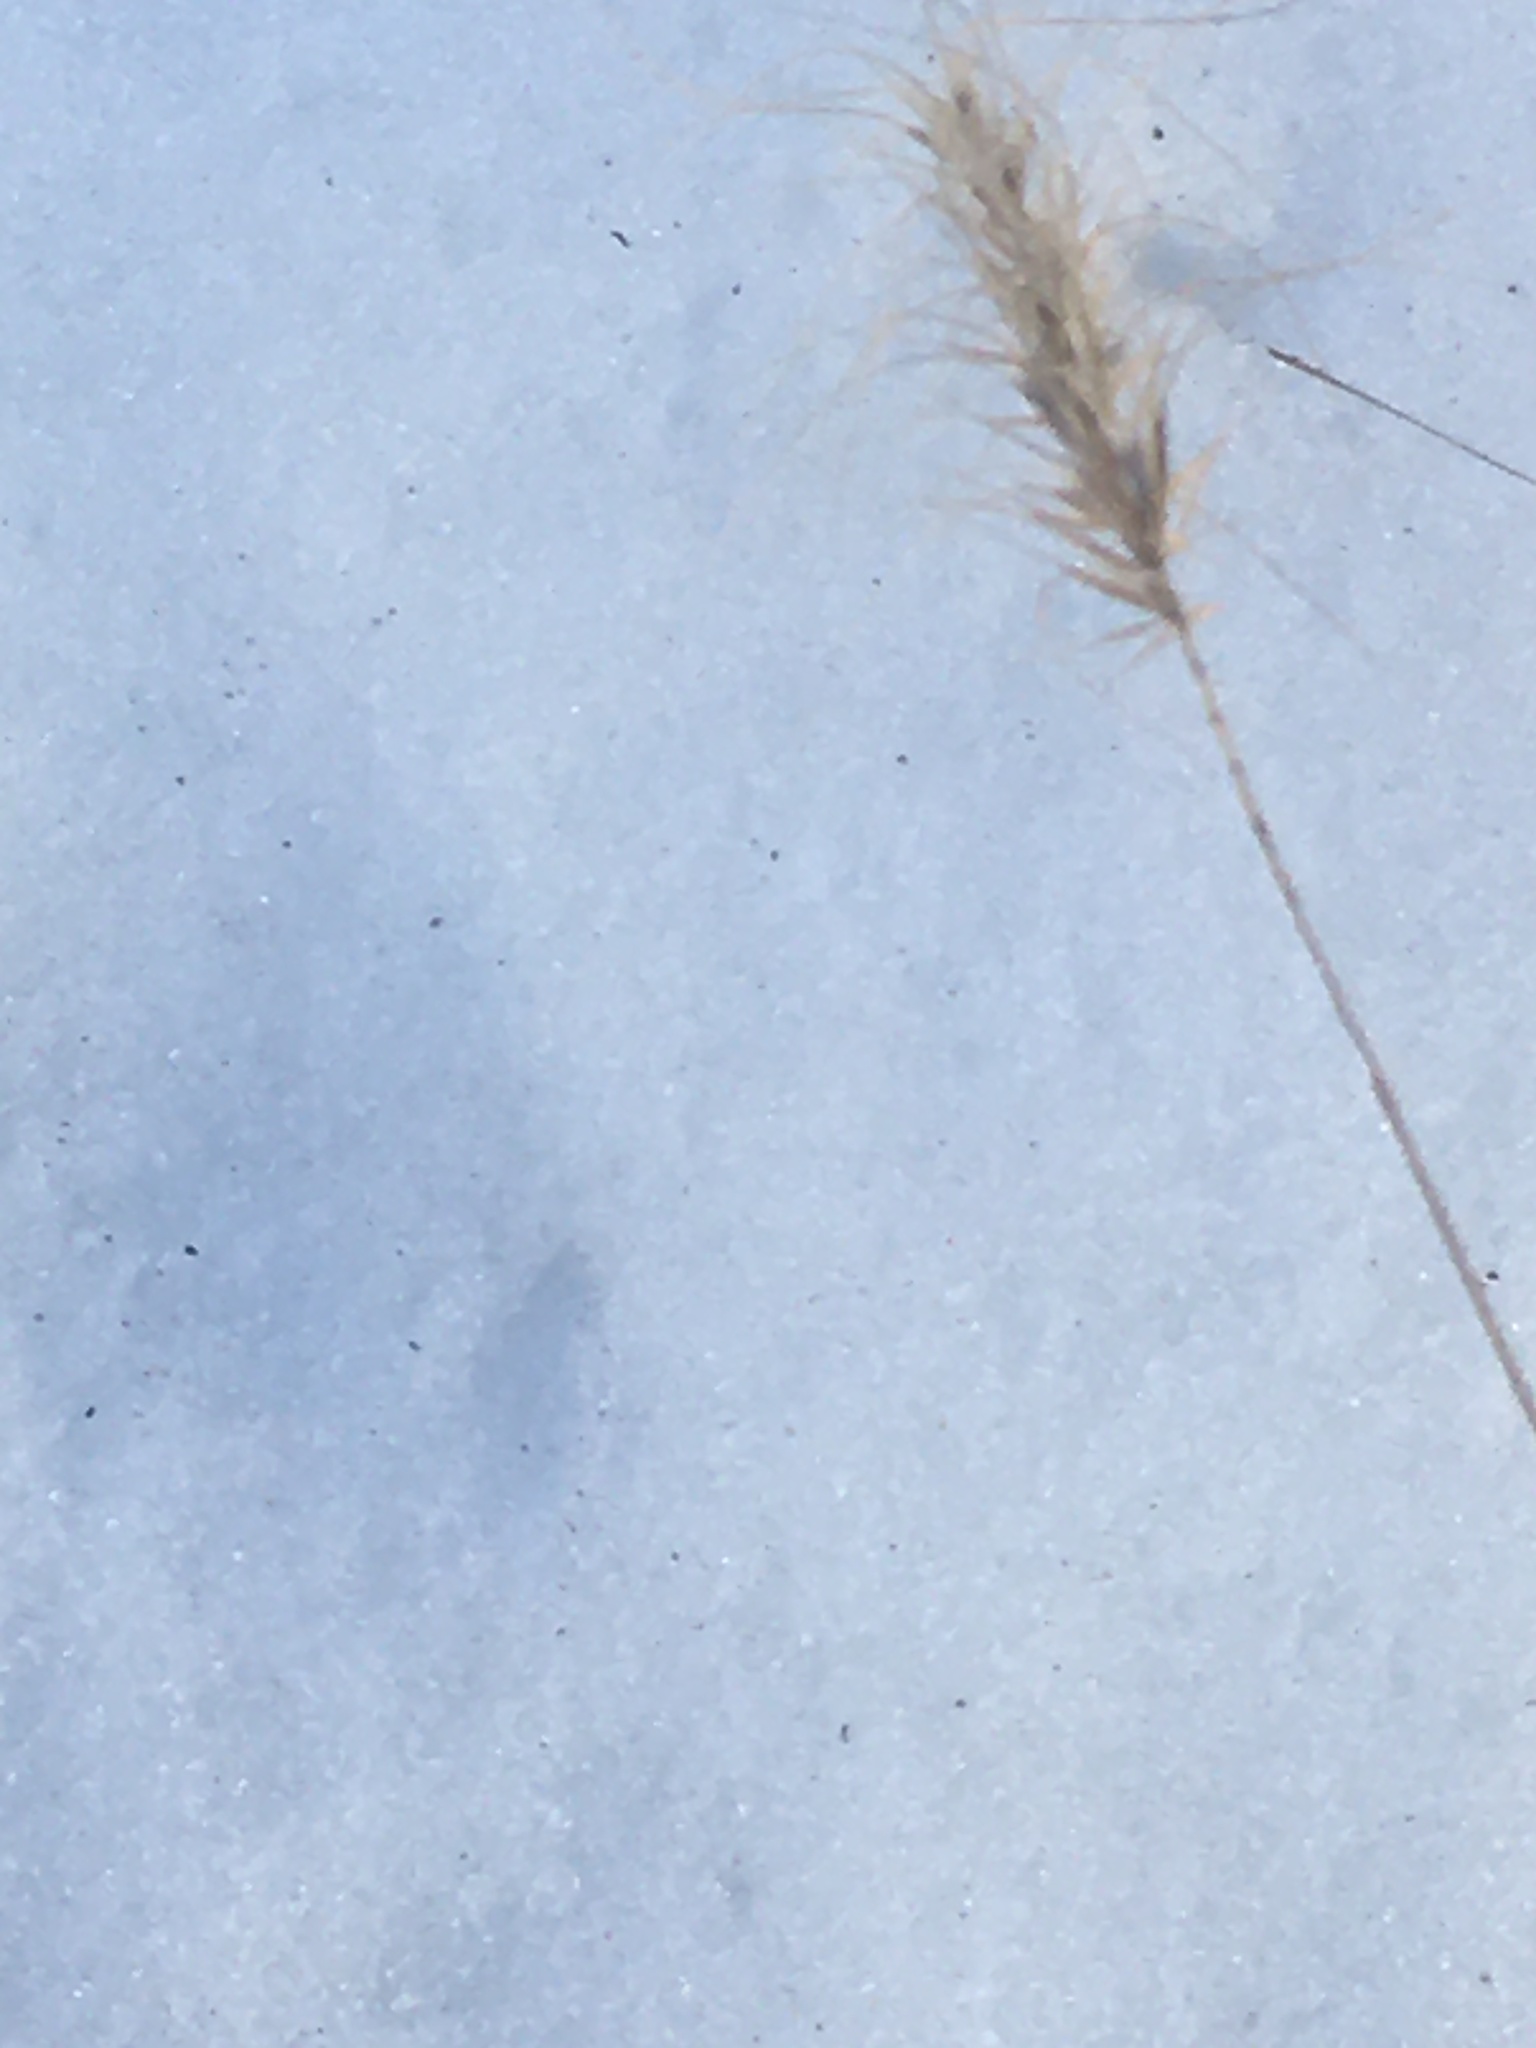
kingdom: Plantae
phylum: Tracheophyta
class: Liliopsida
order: Poales
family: Poaceae
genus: Elymus
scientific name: Elymus canadensis
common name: Canada wild rye
